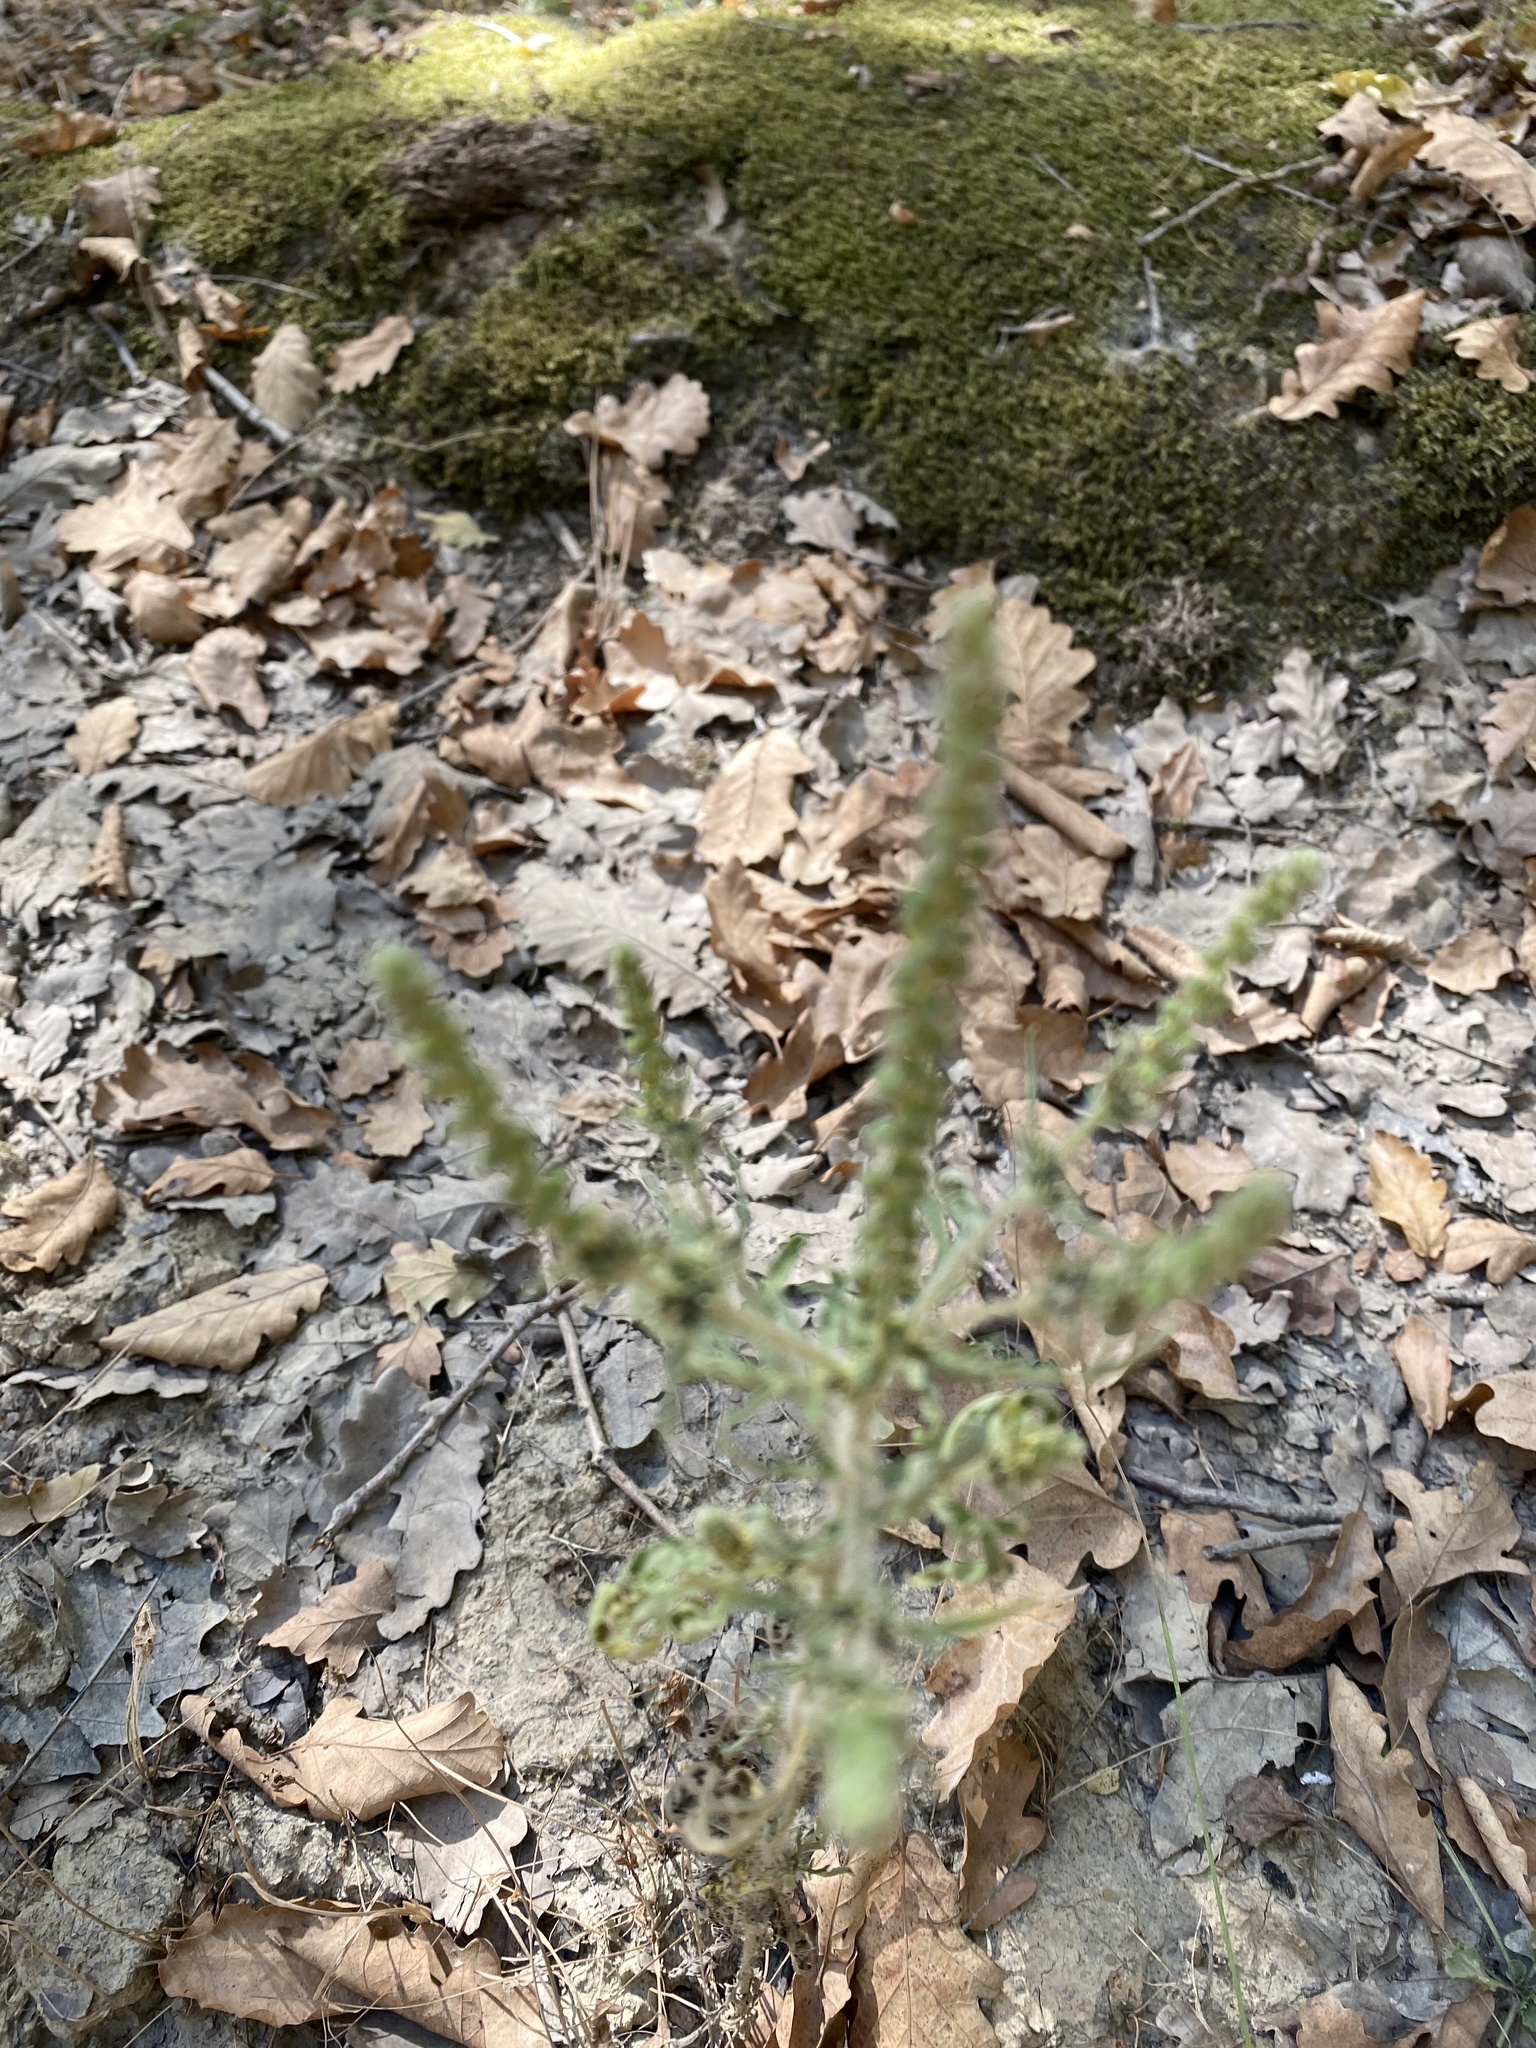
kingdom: Plantae
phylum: Tracheophyta
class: Magnoliopsida
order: Asterales
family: Asteraceae
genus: Ambrosia
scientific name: Ambrosia artemisiifolia
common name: Annual ragweed
